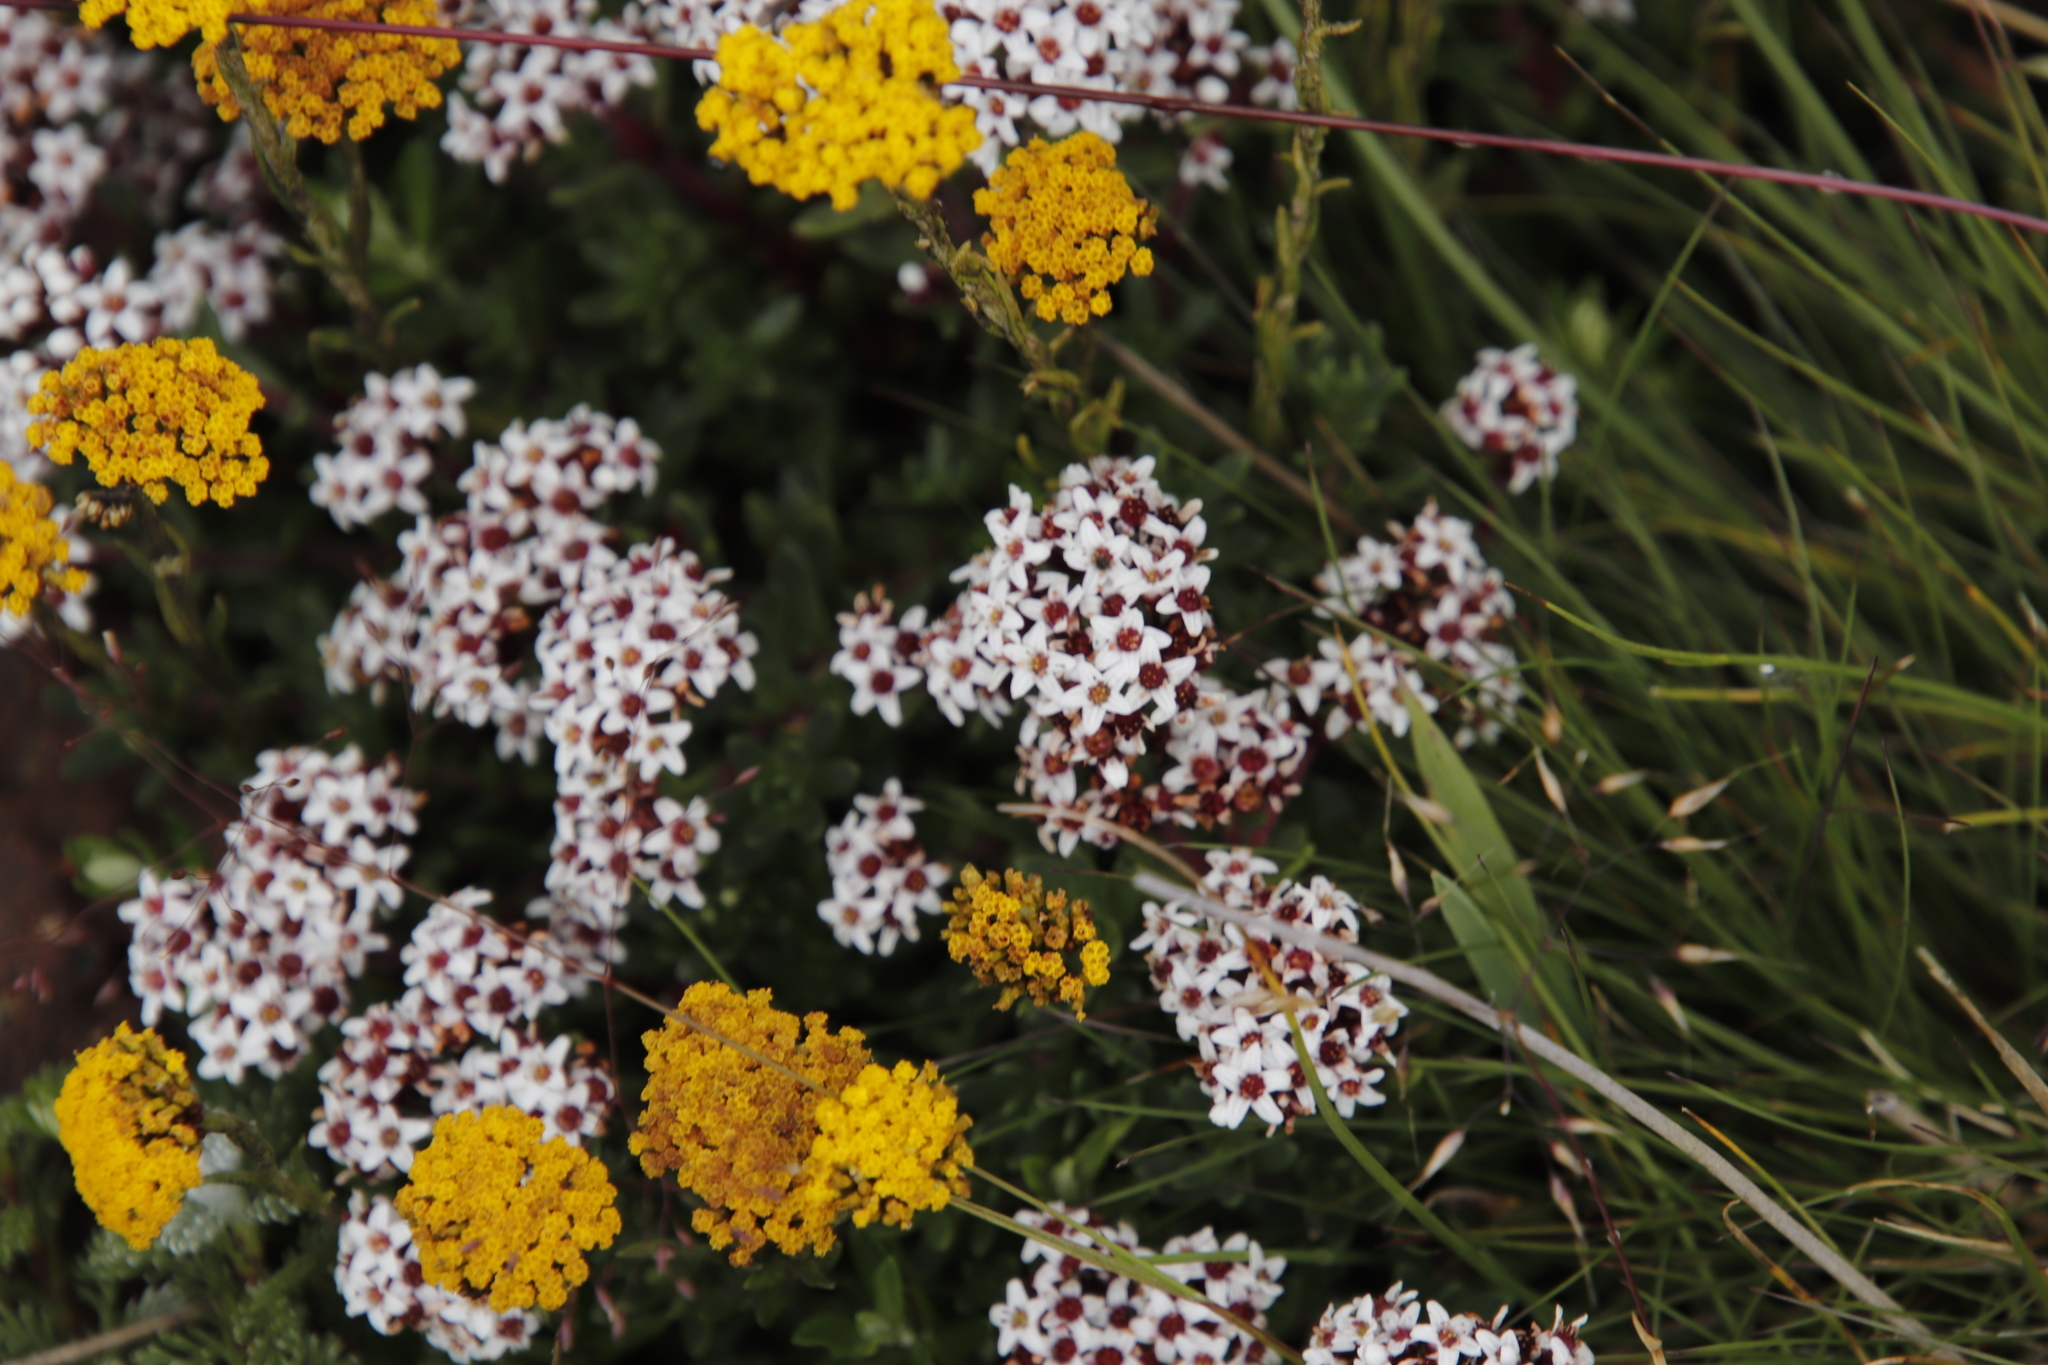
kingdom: Plantae
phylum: Tracheophyta
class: Magnoliopsida
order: Saxifragales
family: Crassulaceae
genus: Crassula
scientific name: Crassula setulosa
